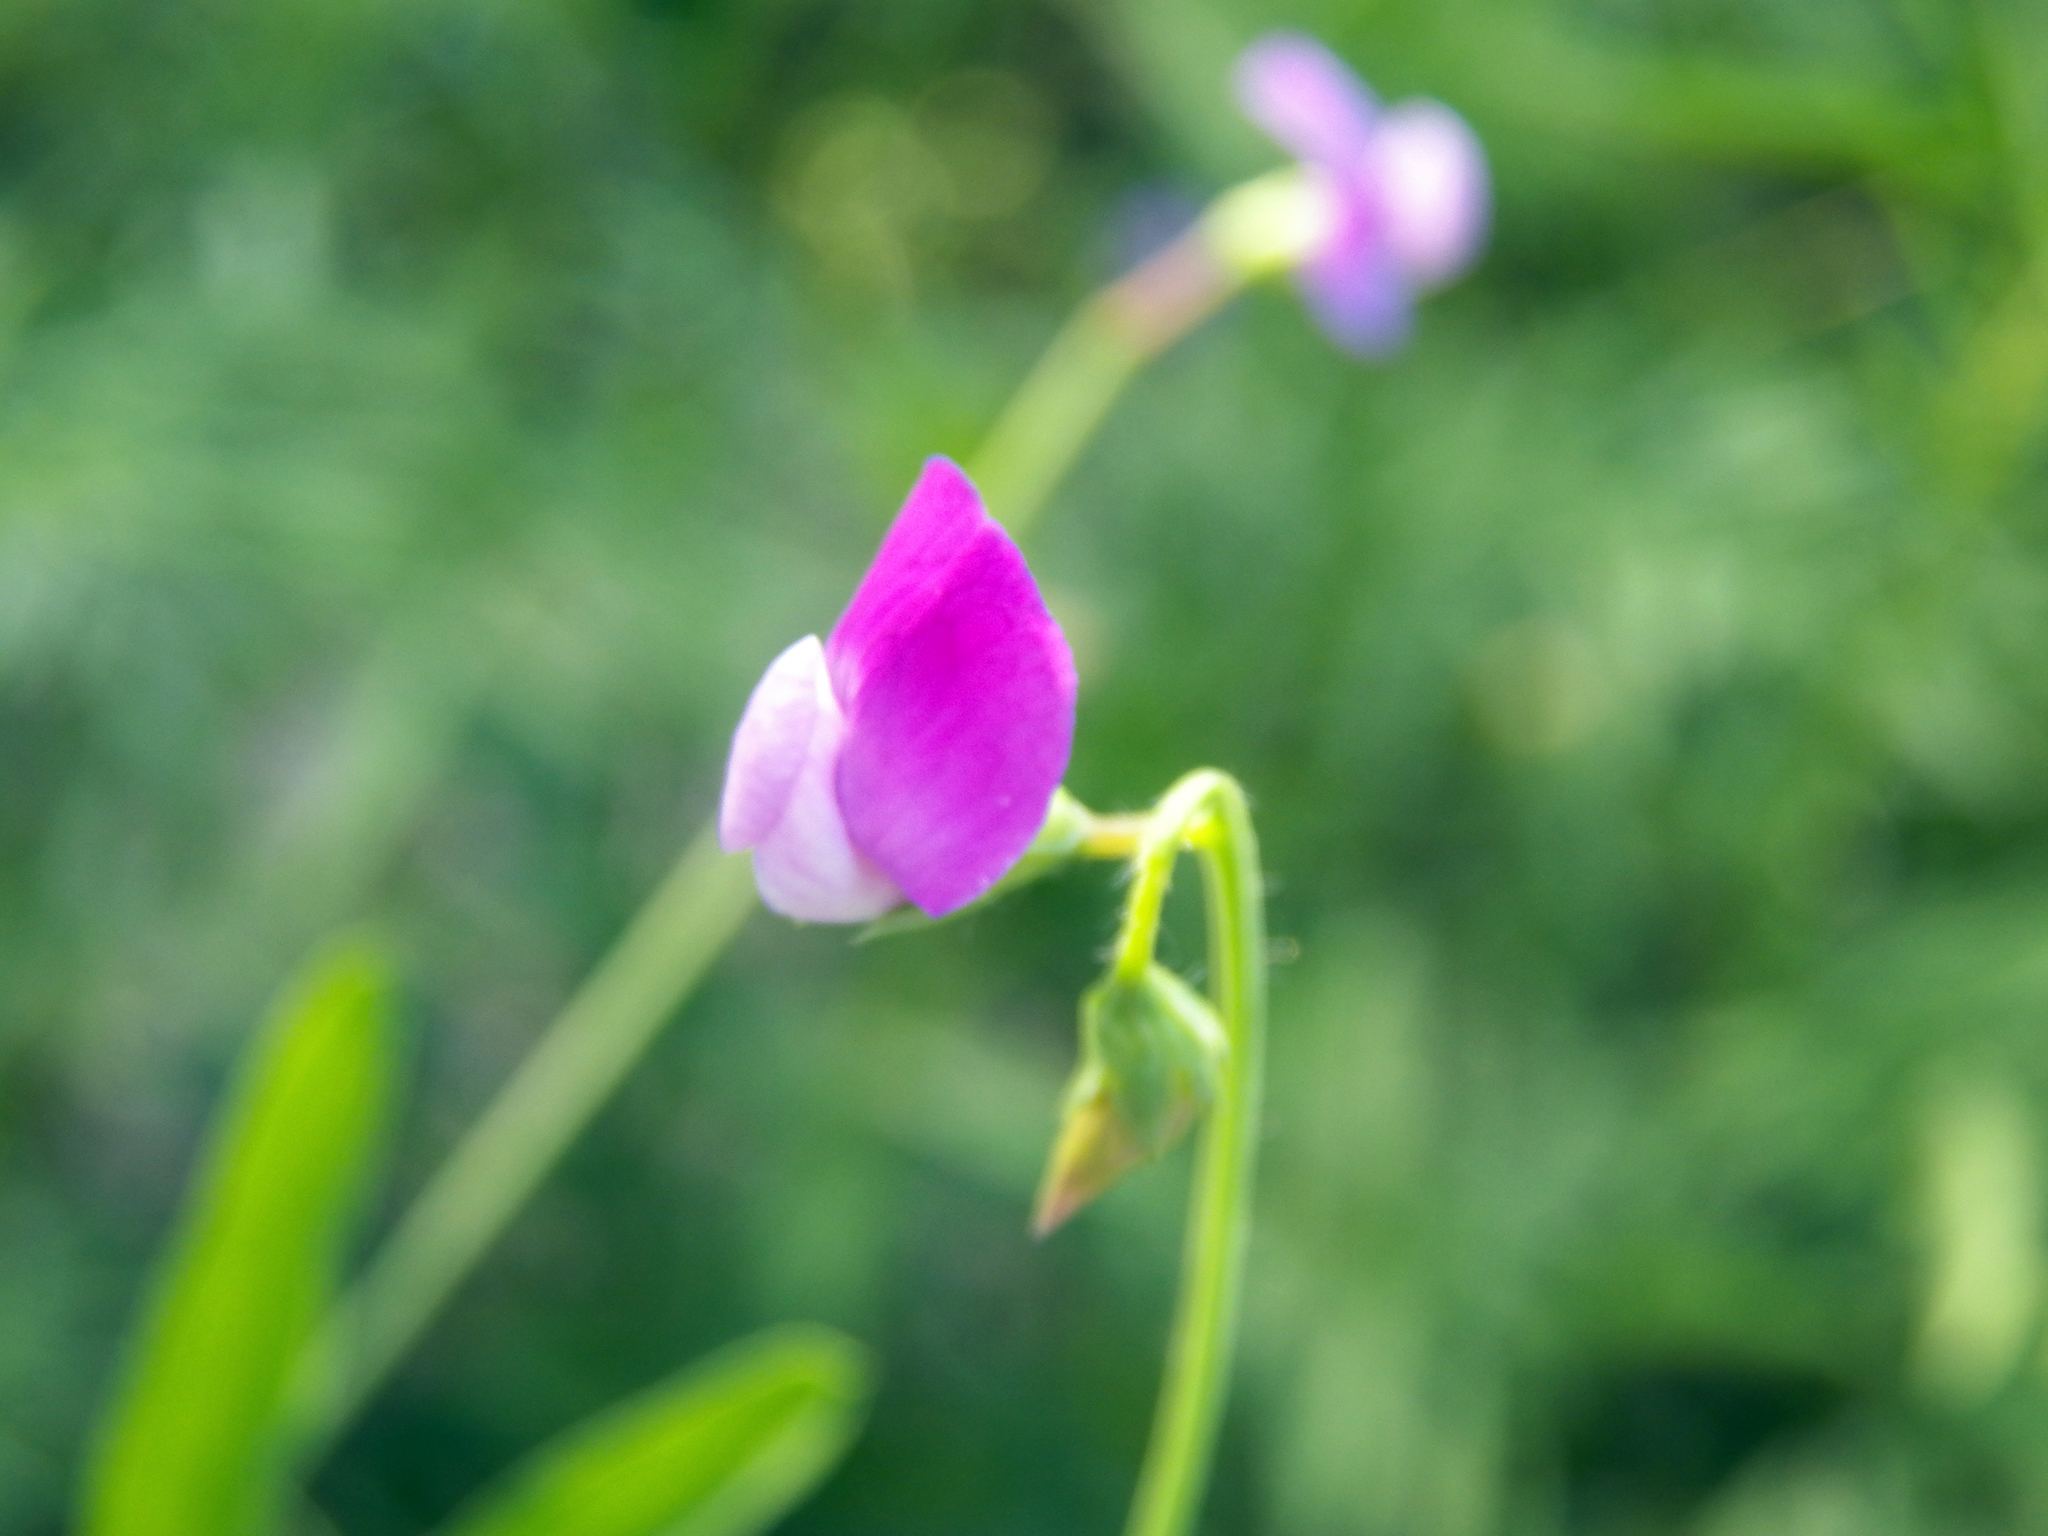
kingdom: Plantae
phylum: Tracheophyta
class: Magnoliopsida
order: Fabales
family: Fabaceae
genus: Lathyrus
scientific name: Lathyrus hirsutus
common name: Hairy vetchling
